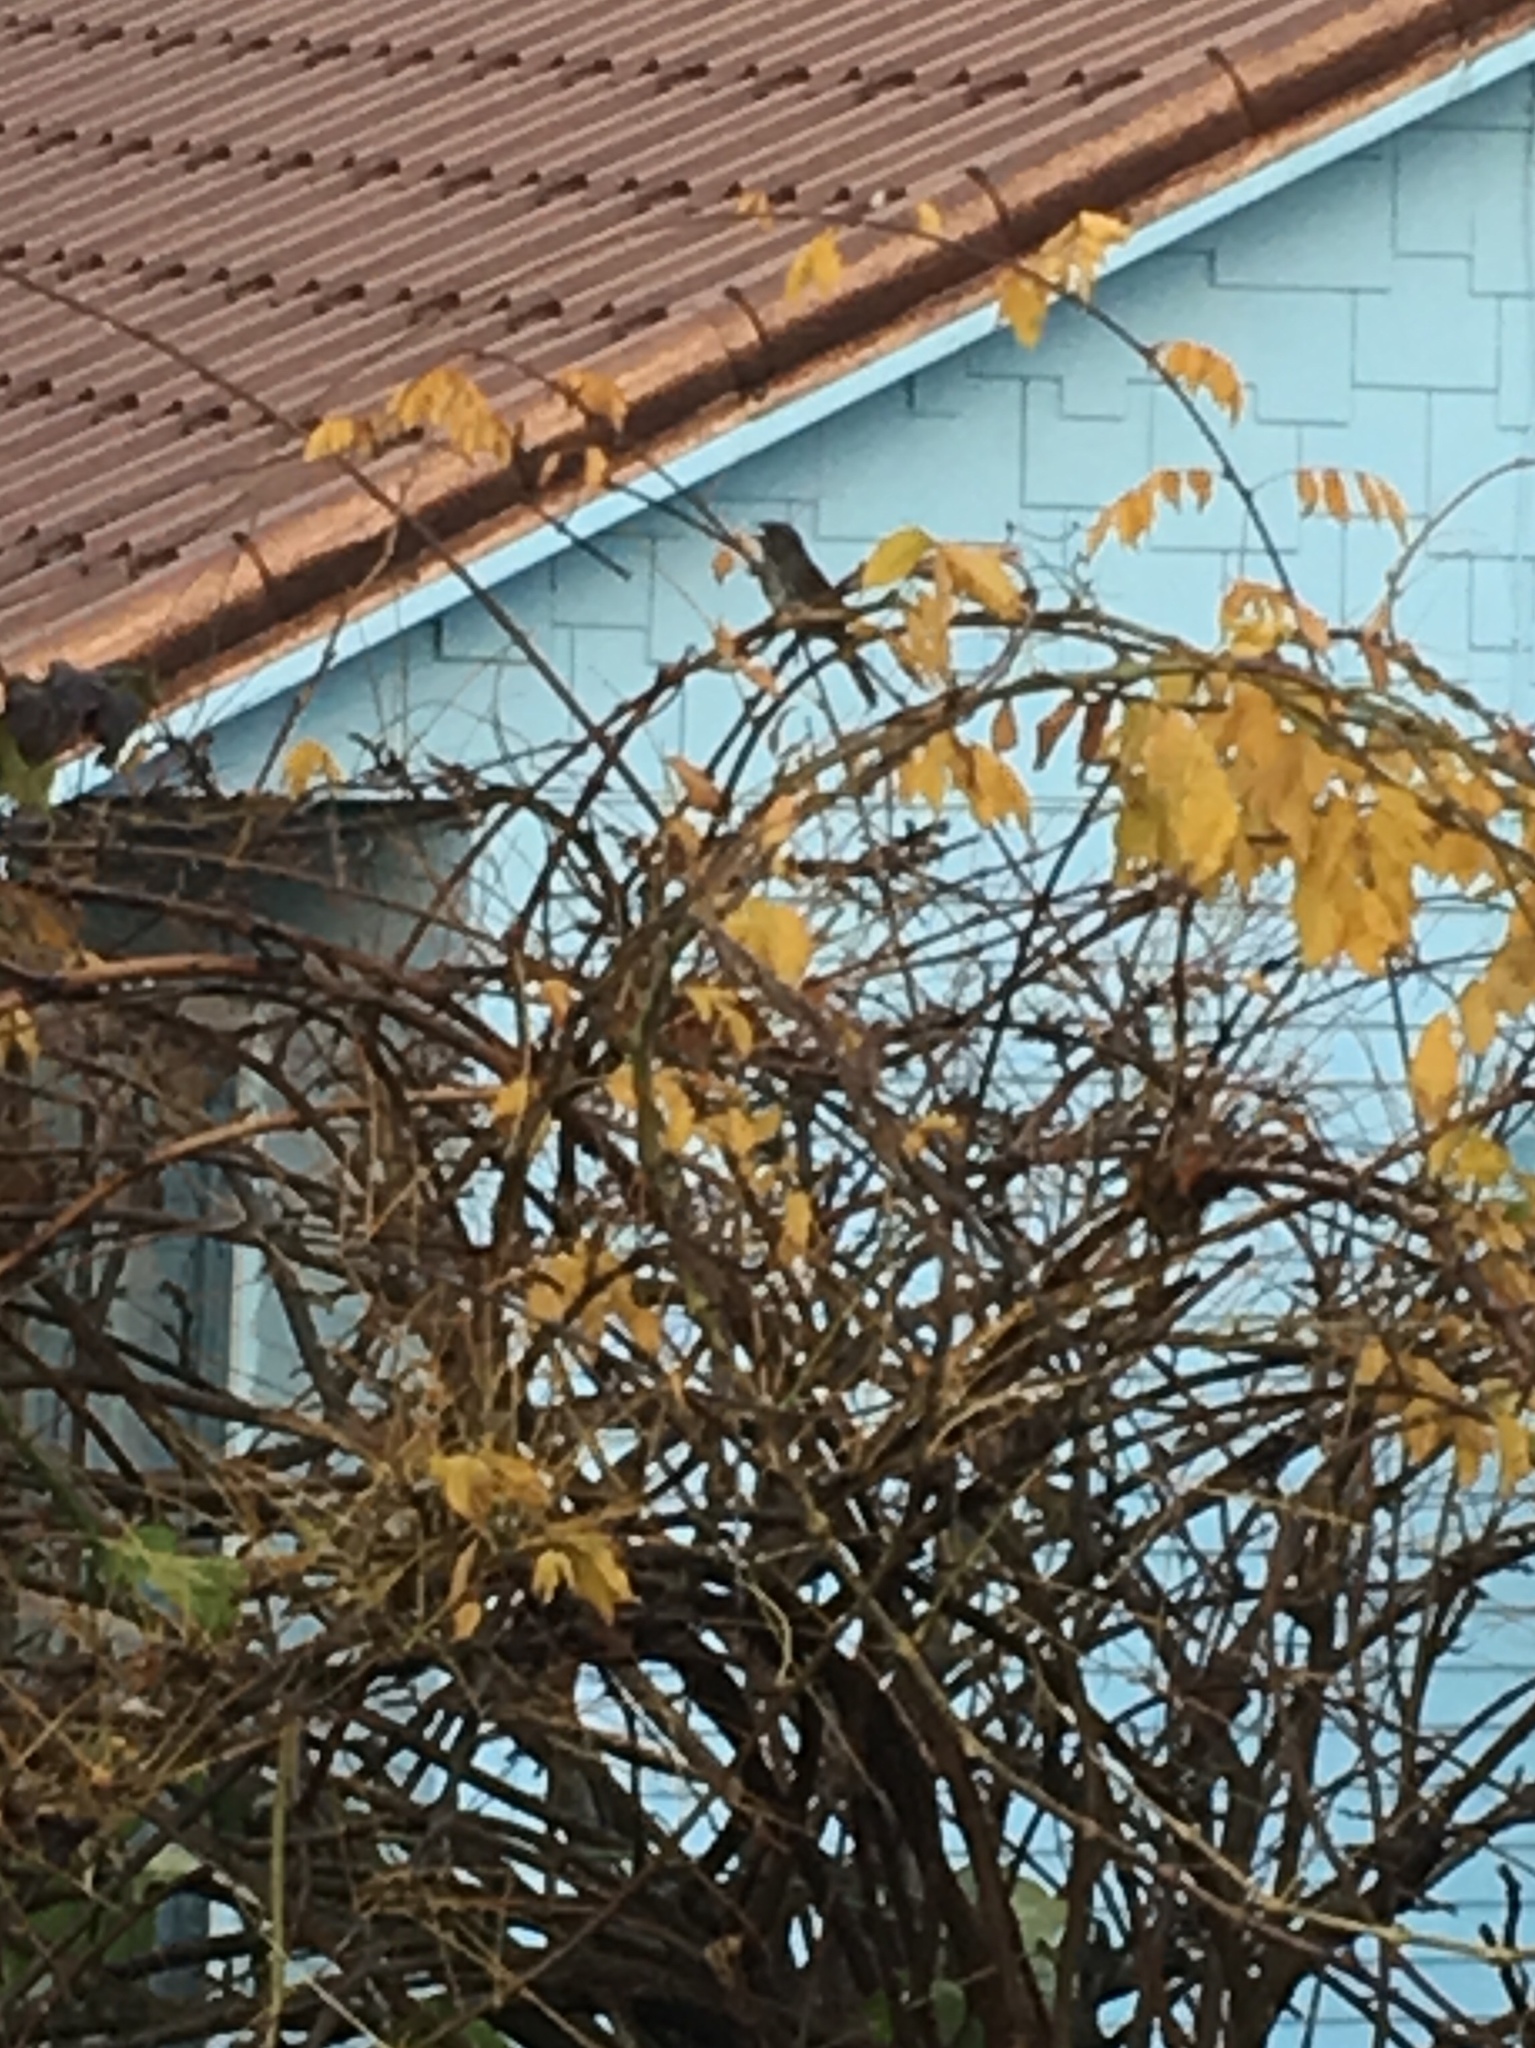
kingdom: Animalia
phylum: Chordata
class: Aves
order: Passeriformes
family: Passerellidae
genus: Melospiza
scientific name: Melospiza melodia
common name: Song sparrow
